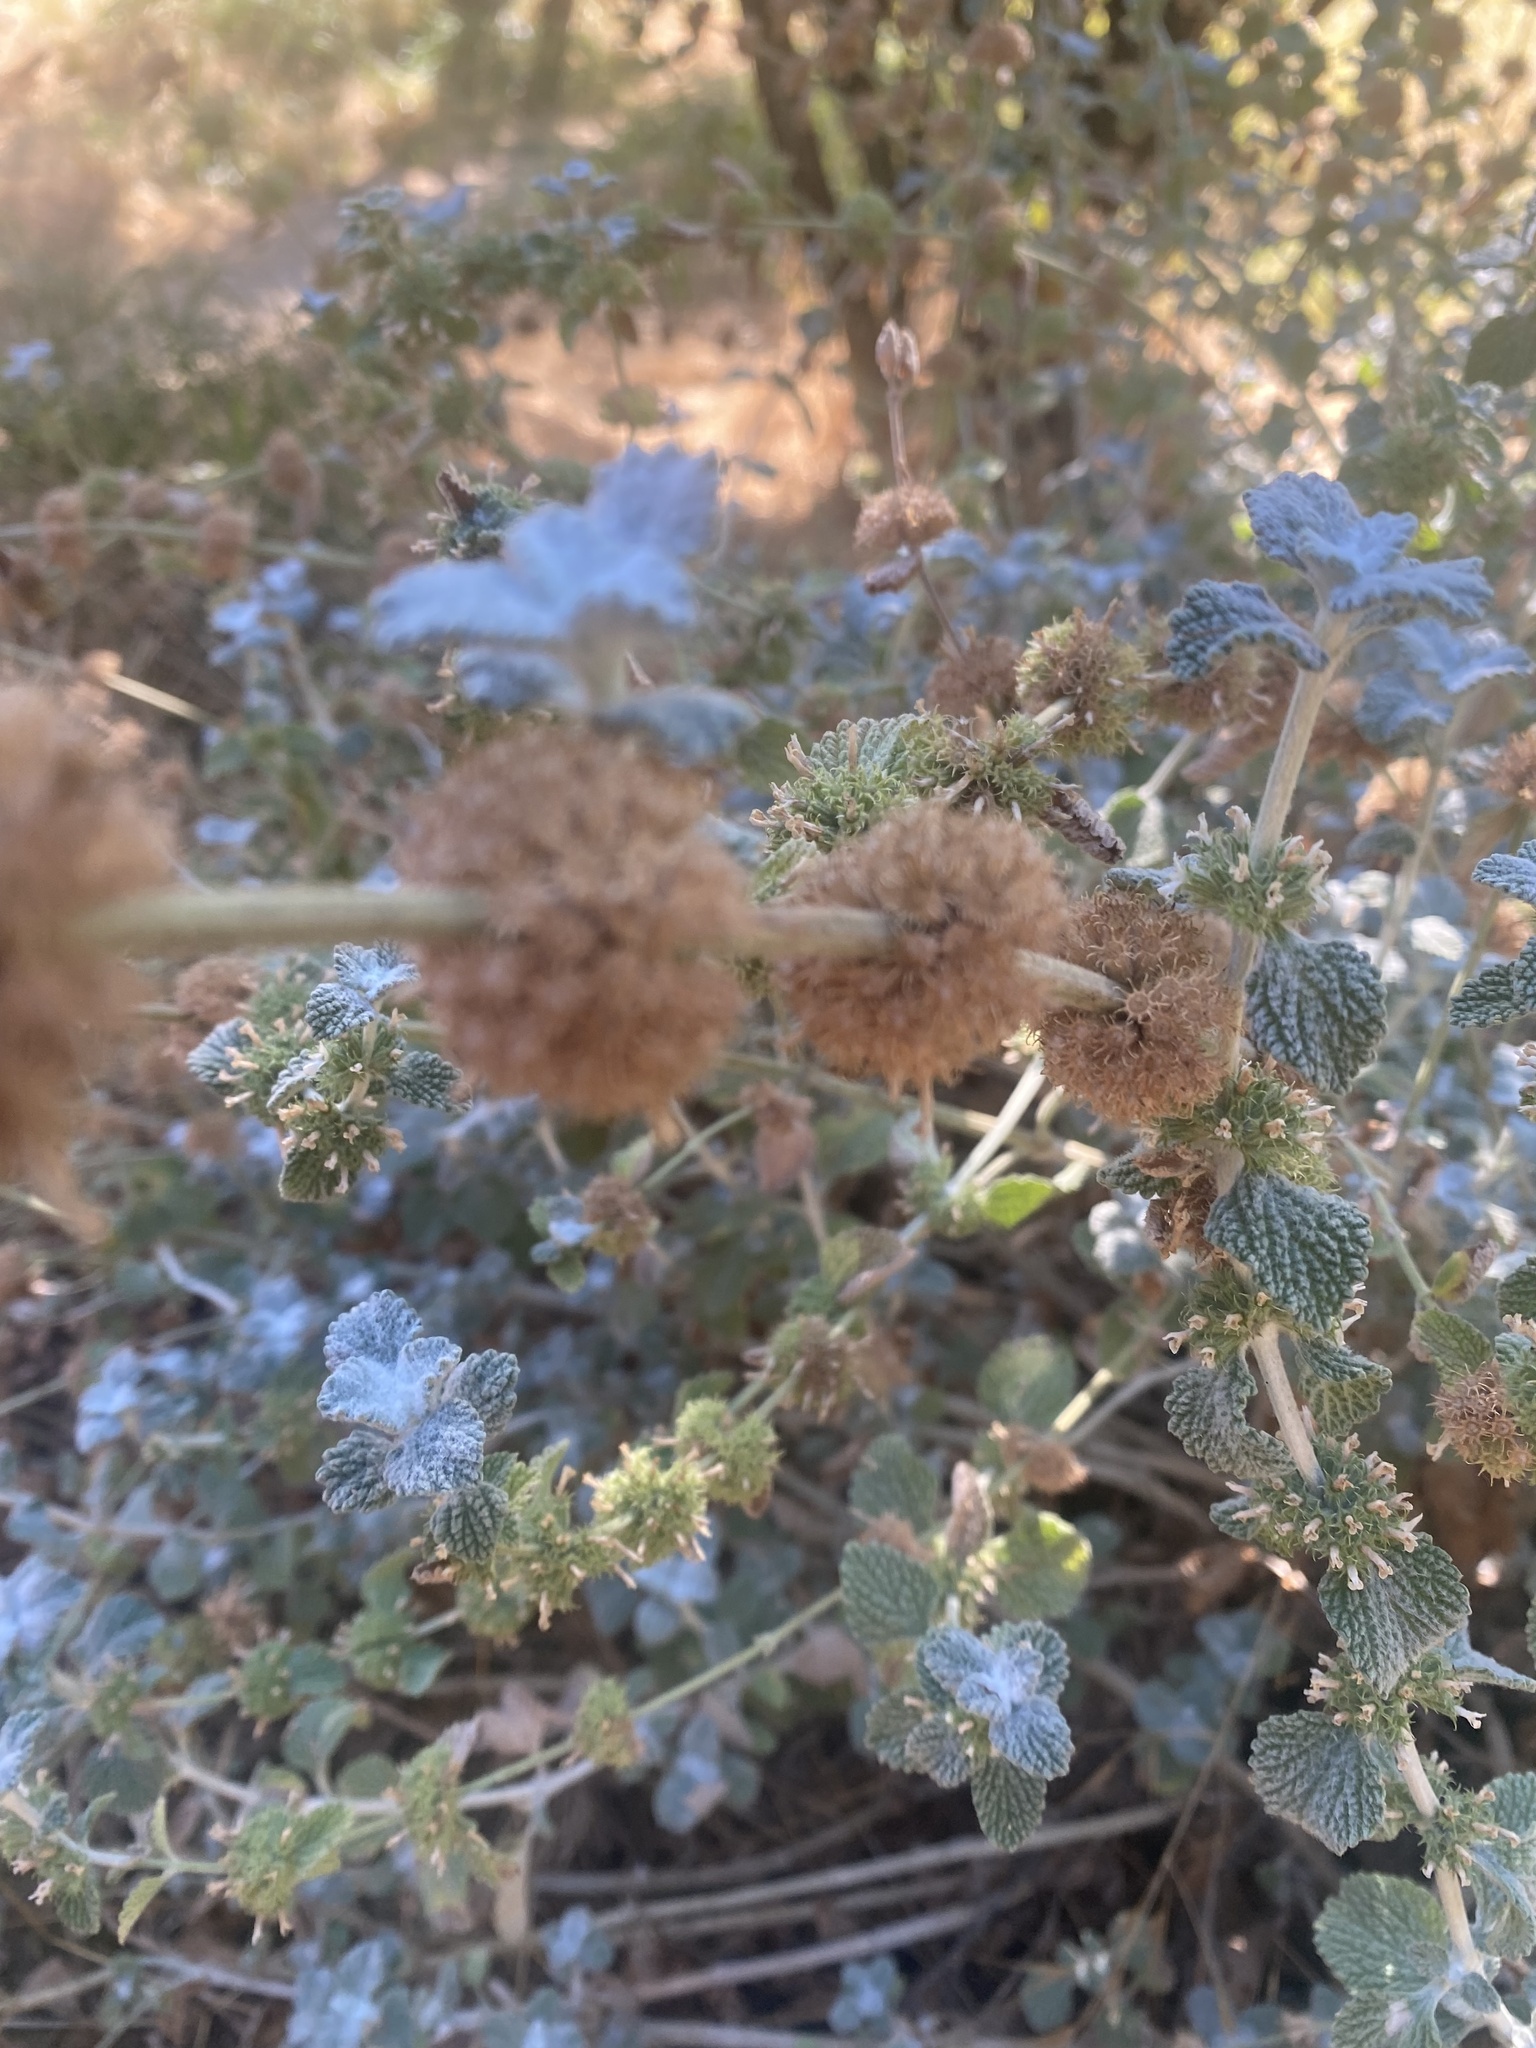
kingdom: Plantae
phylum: Tracheophyta
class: Magnoliopsida
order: Lamiales
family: Lamiaceae
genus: Marrubium
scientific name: Marrubium vulgare
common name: Horehound
